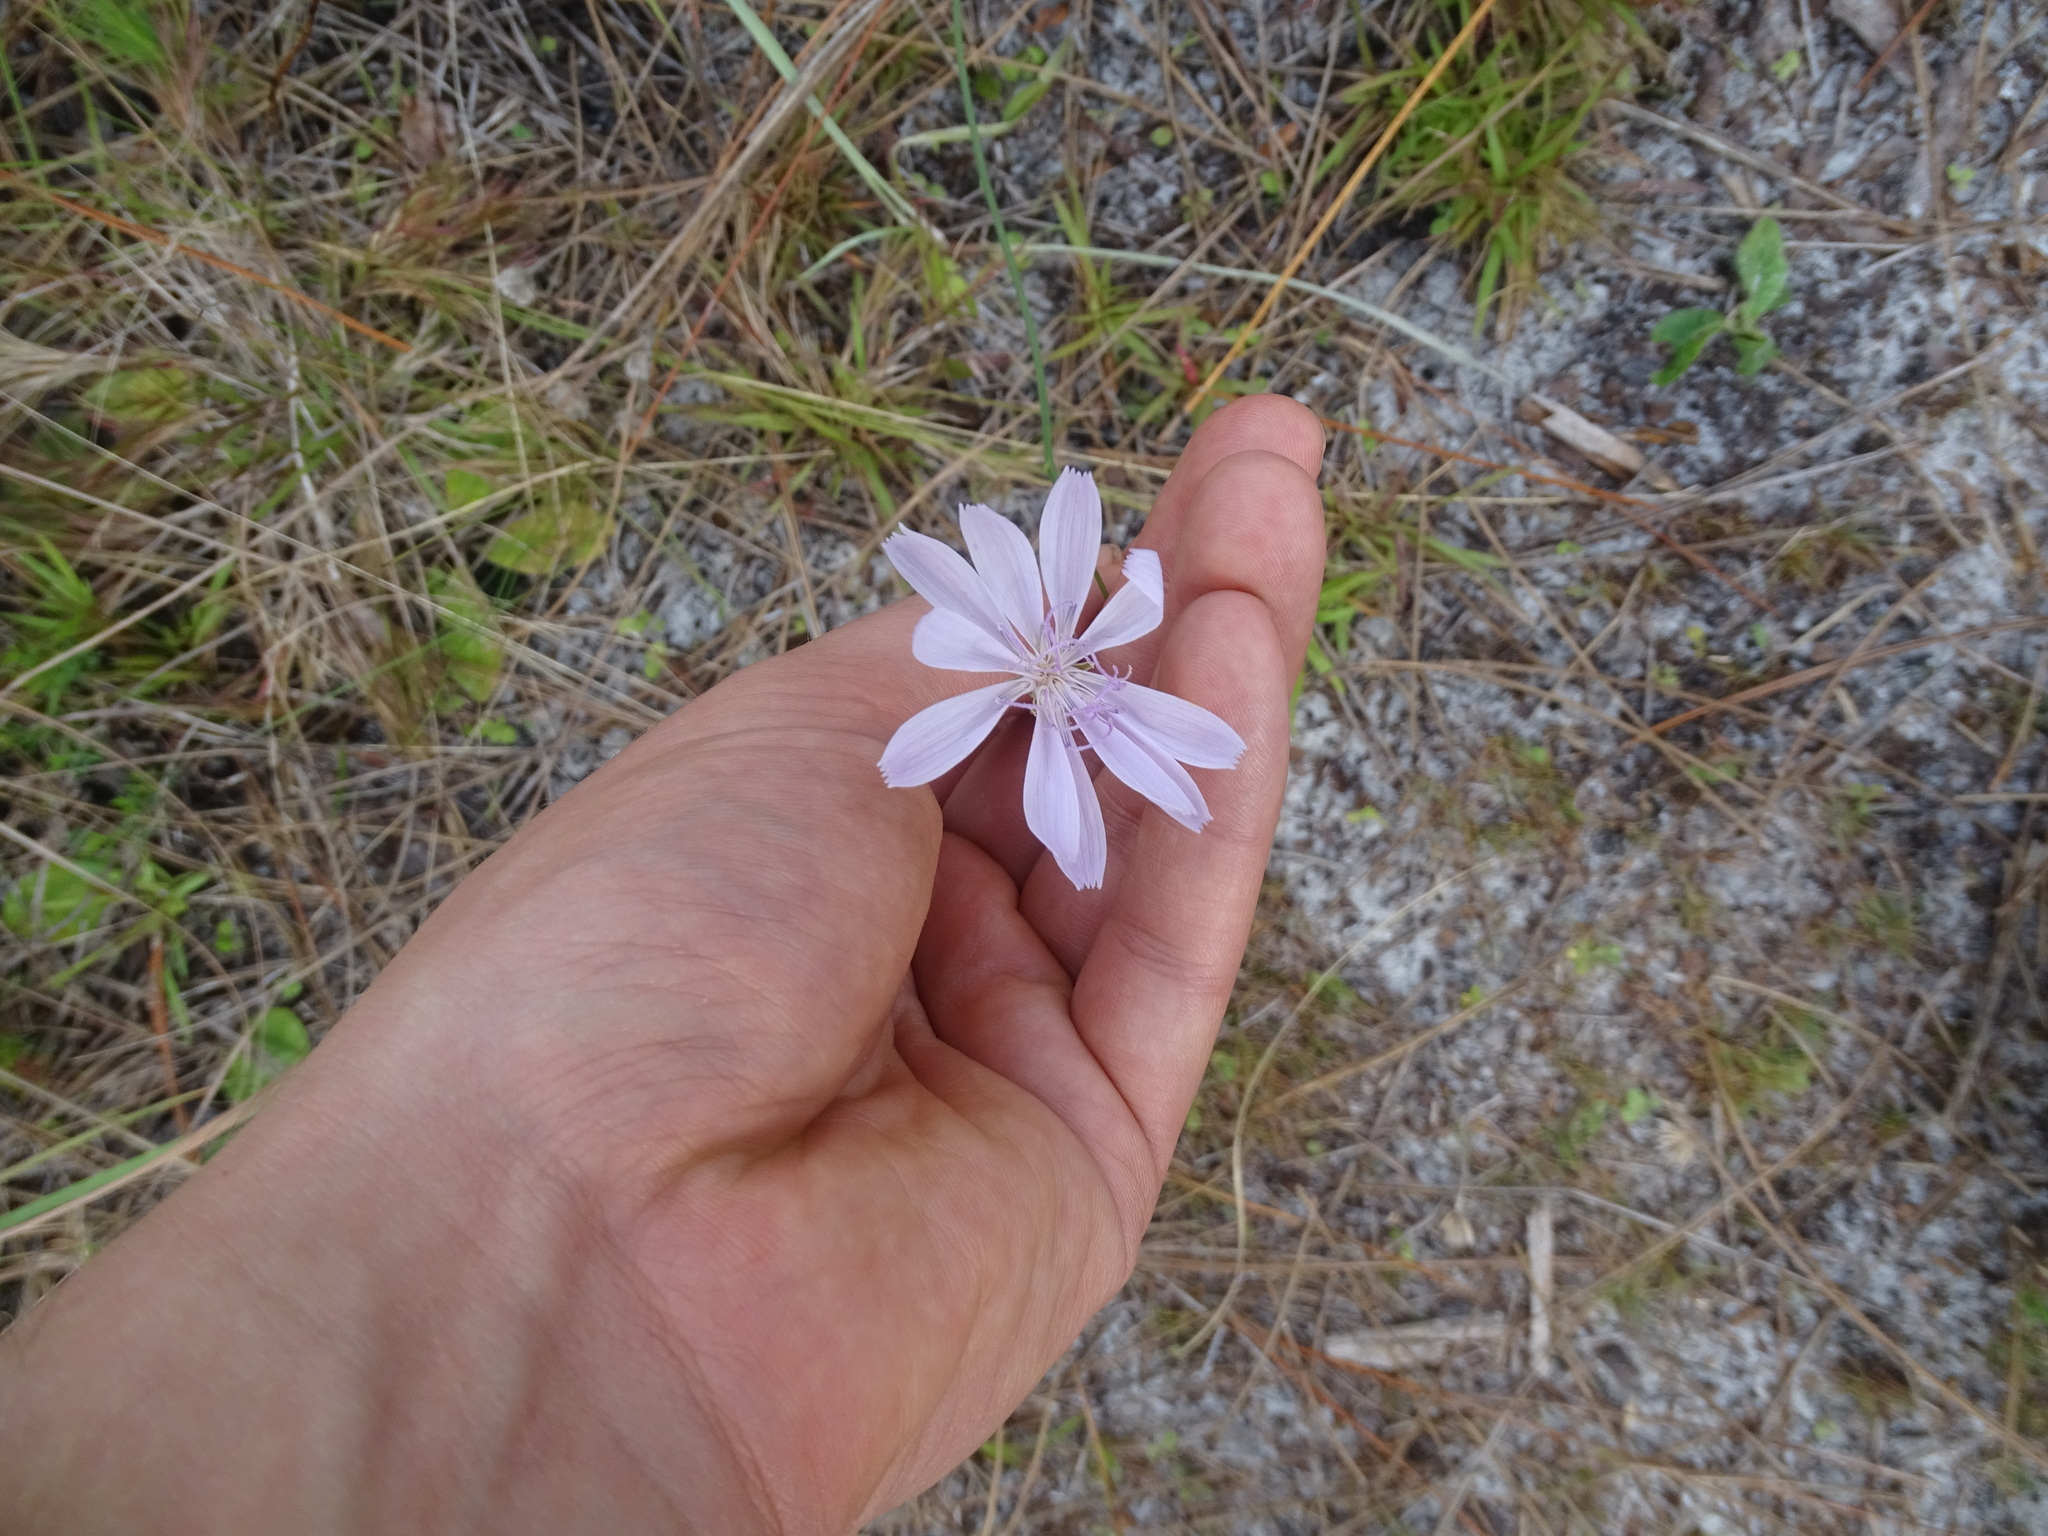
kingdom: Plantae
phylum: Tracheophyta
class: Magnoliopsida
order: Asterales
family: Asteraceae
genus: Lygodesmia
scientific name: Lygodesmia aphylla
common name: Rose-rush
